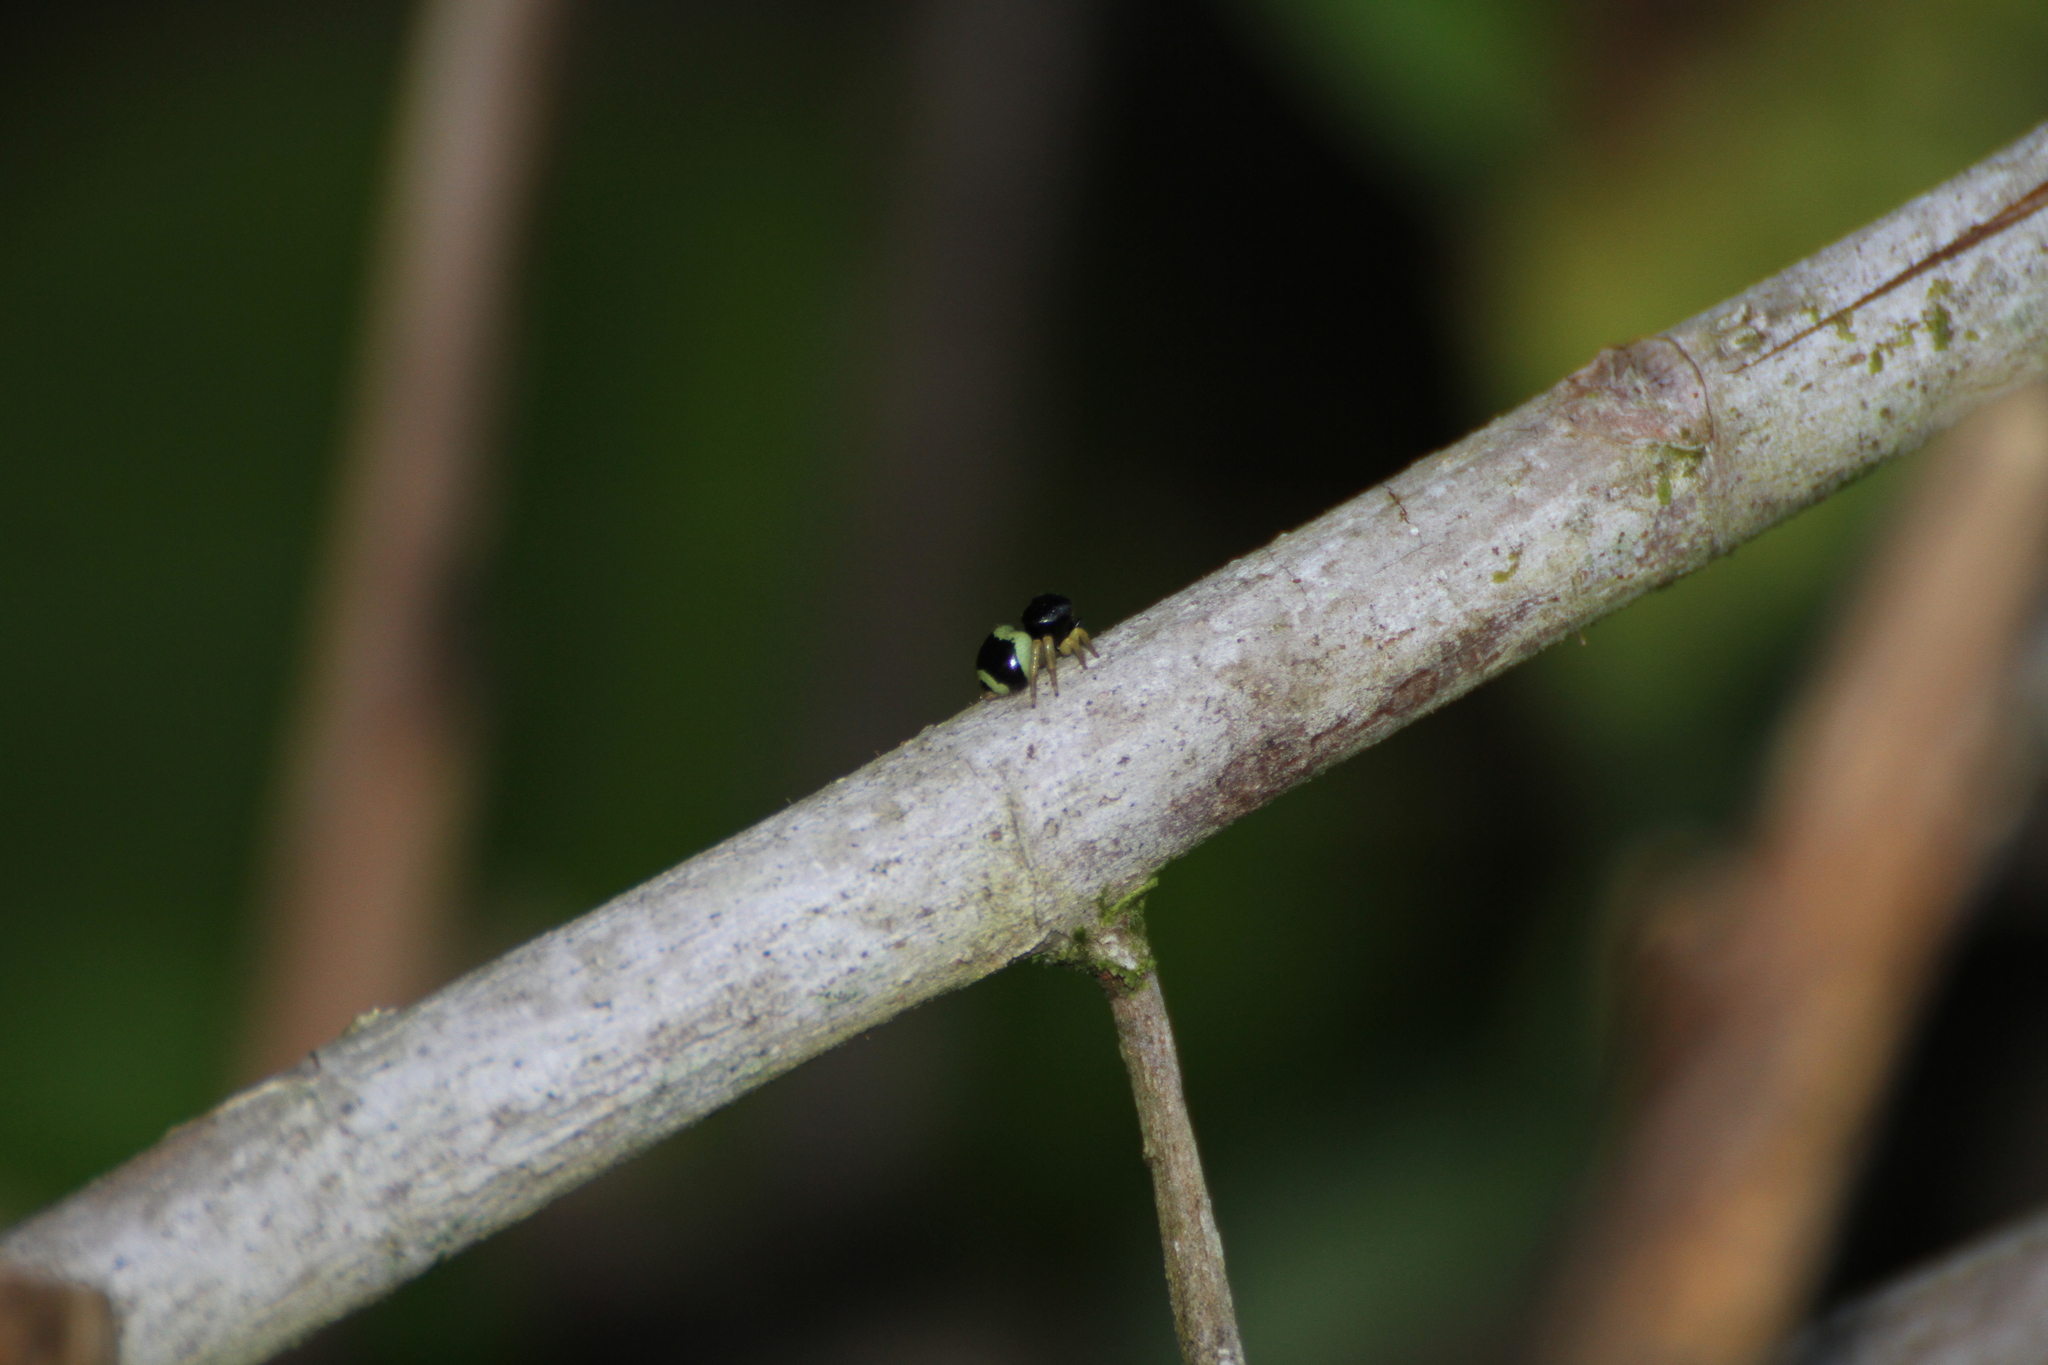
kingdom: Animalia
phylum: Arthropoda
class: Arachnida
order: Araneae
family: Salticidae
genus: Pystira
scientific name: Pystira ephippigera
